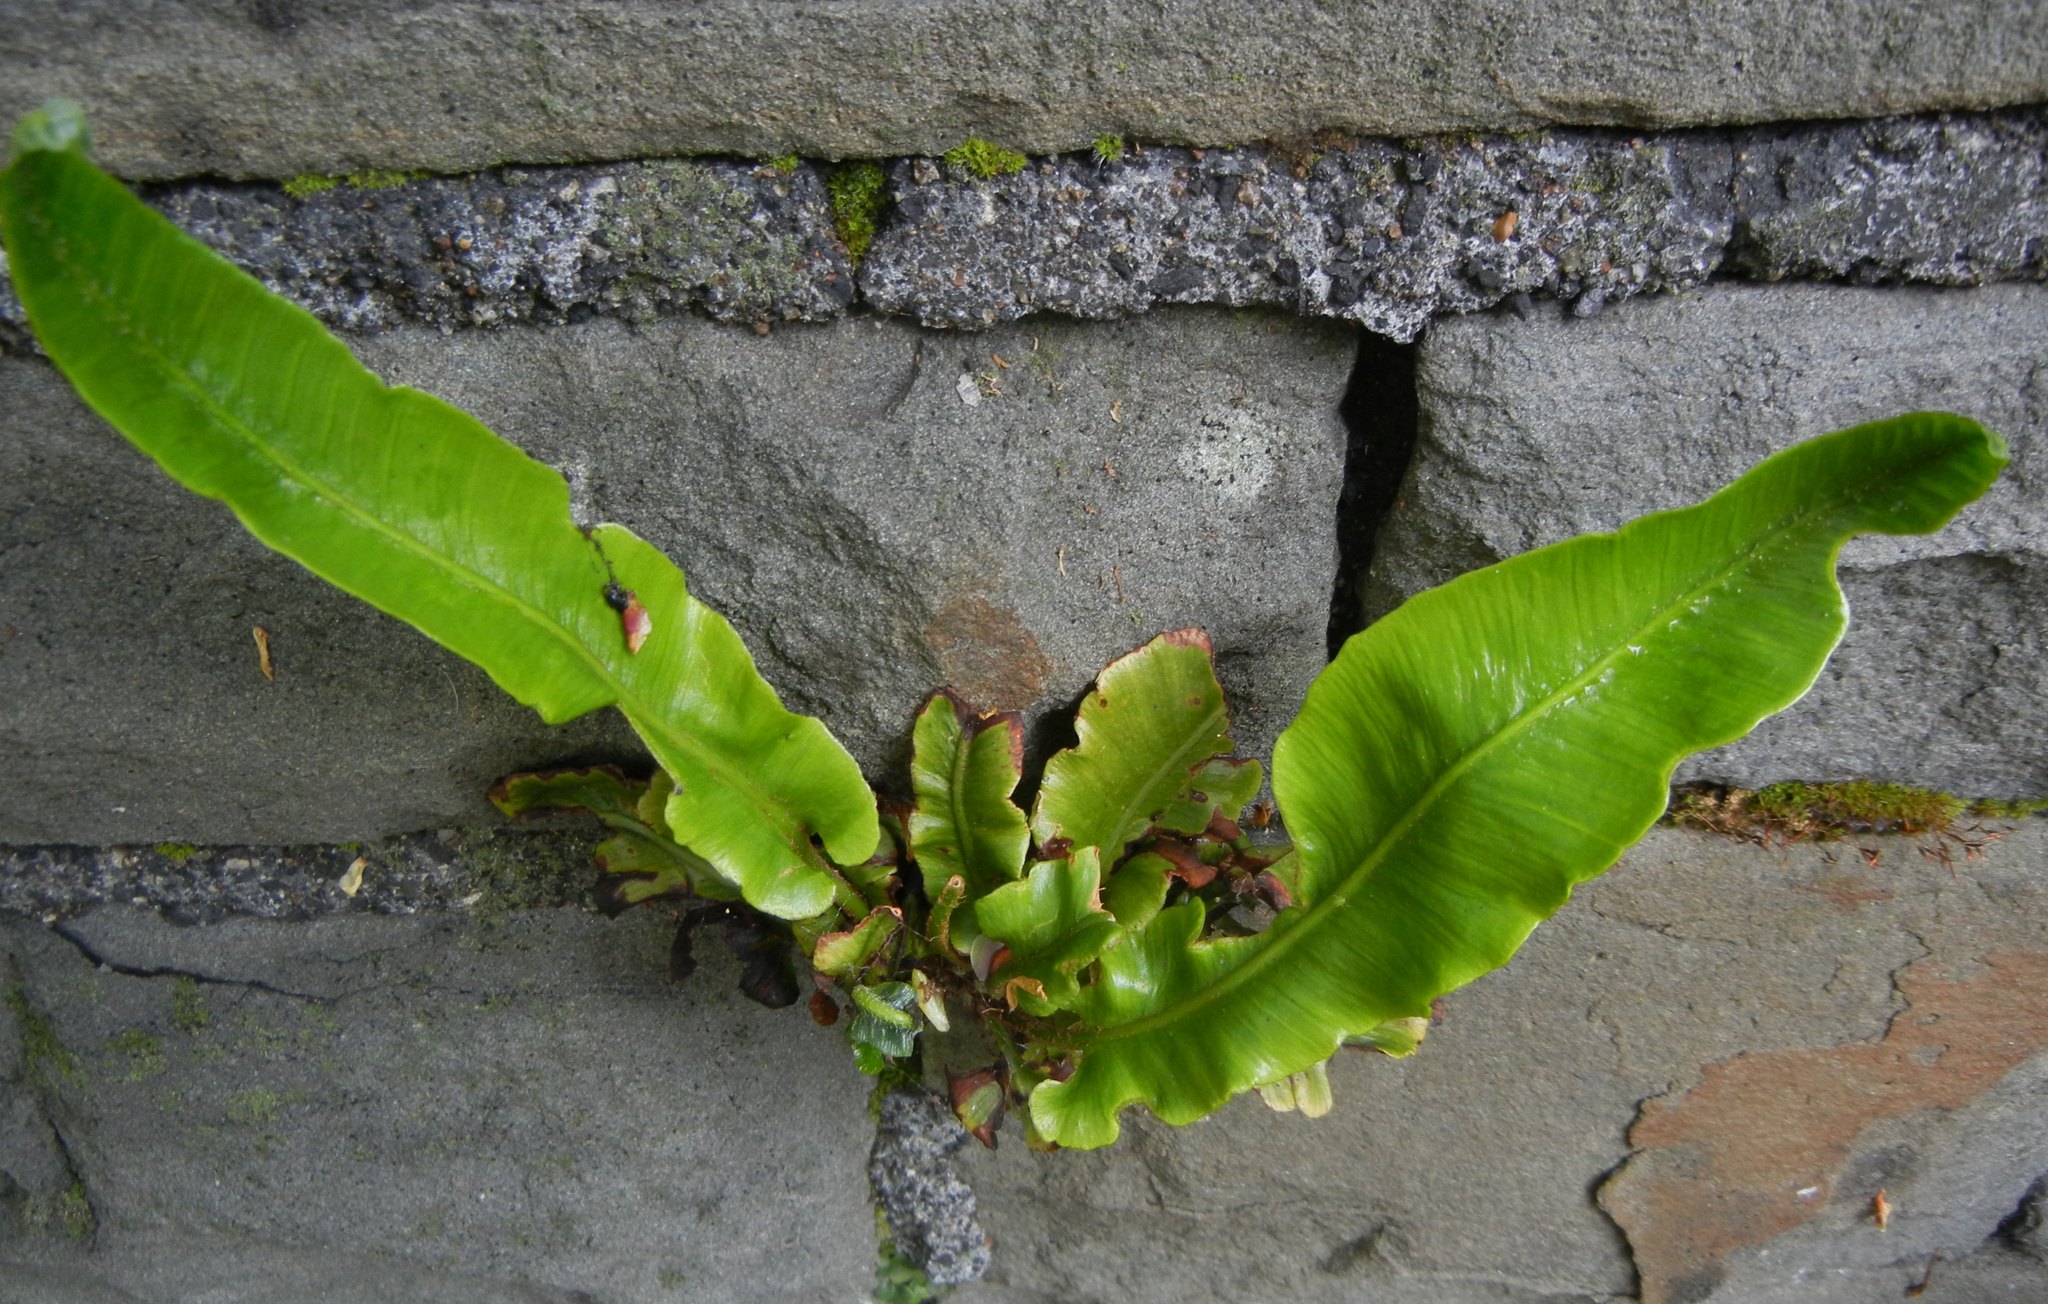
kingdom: Plantae
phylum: Tracheophyta
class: Polypodiopsida
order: Polypodiales
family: Aspleniaceae
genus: Asplenium
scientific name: Asplenium scolopendrium
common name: Hart's-tongue fern
